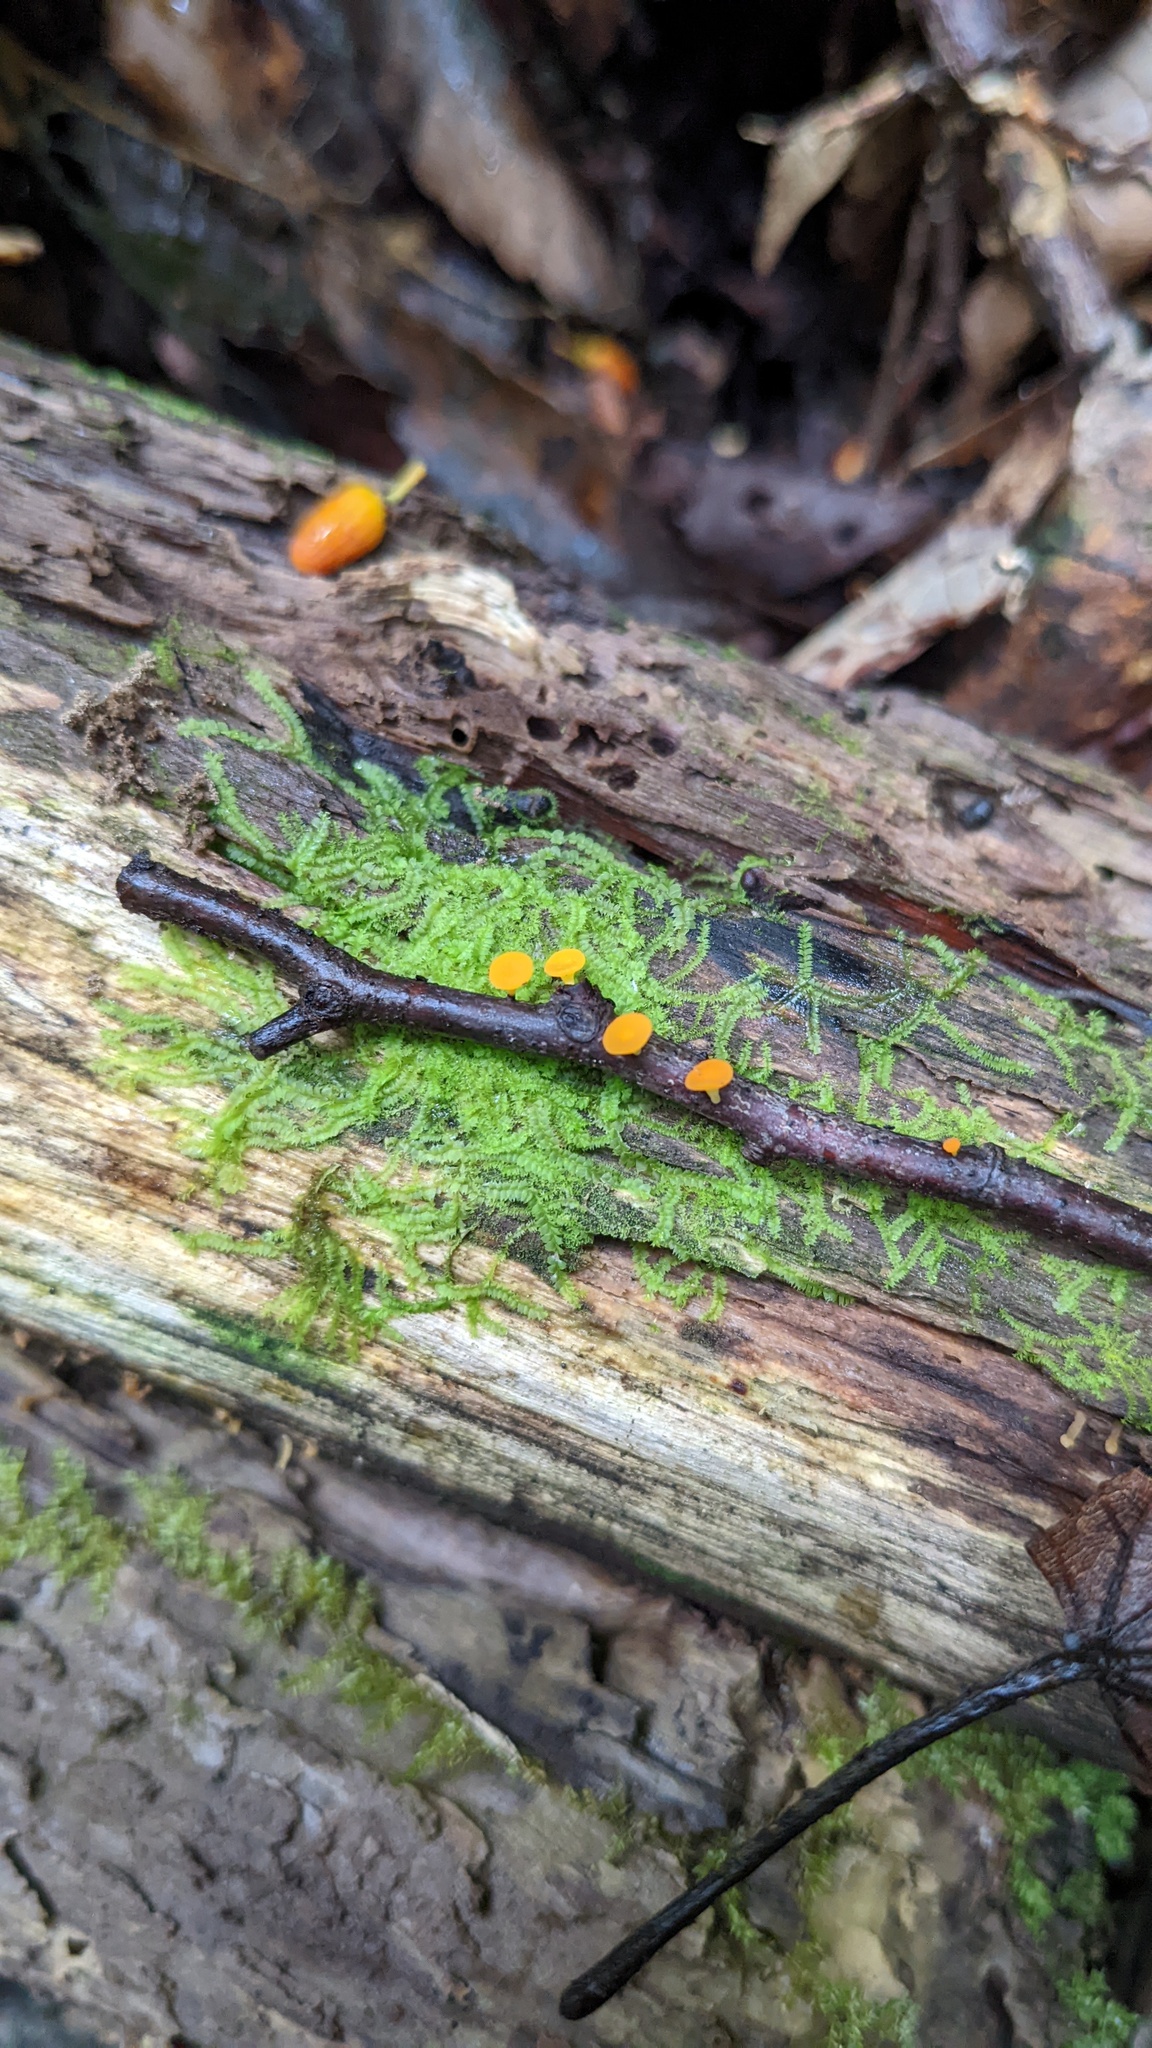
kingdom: Fungi
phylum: Ascomycota
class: Leotiomycetes
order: Helotiales
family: Helotiaceae
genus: Dicephalospora
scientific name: Dicephalospora rufocornea
